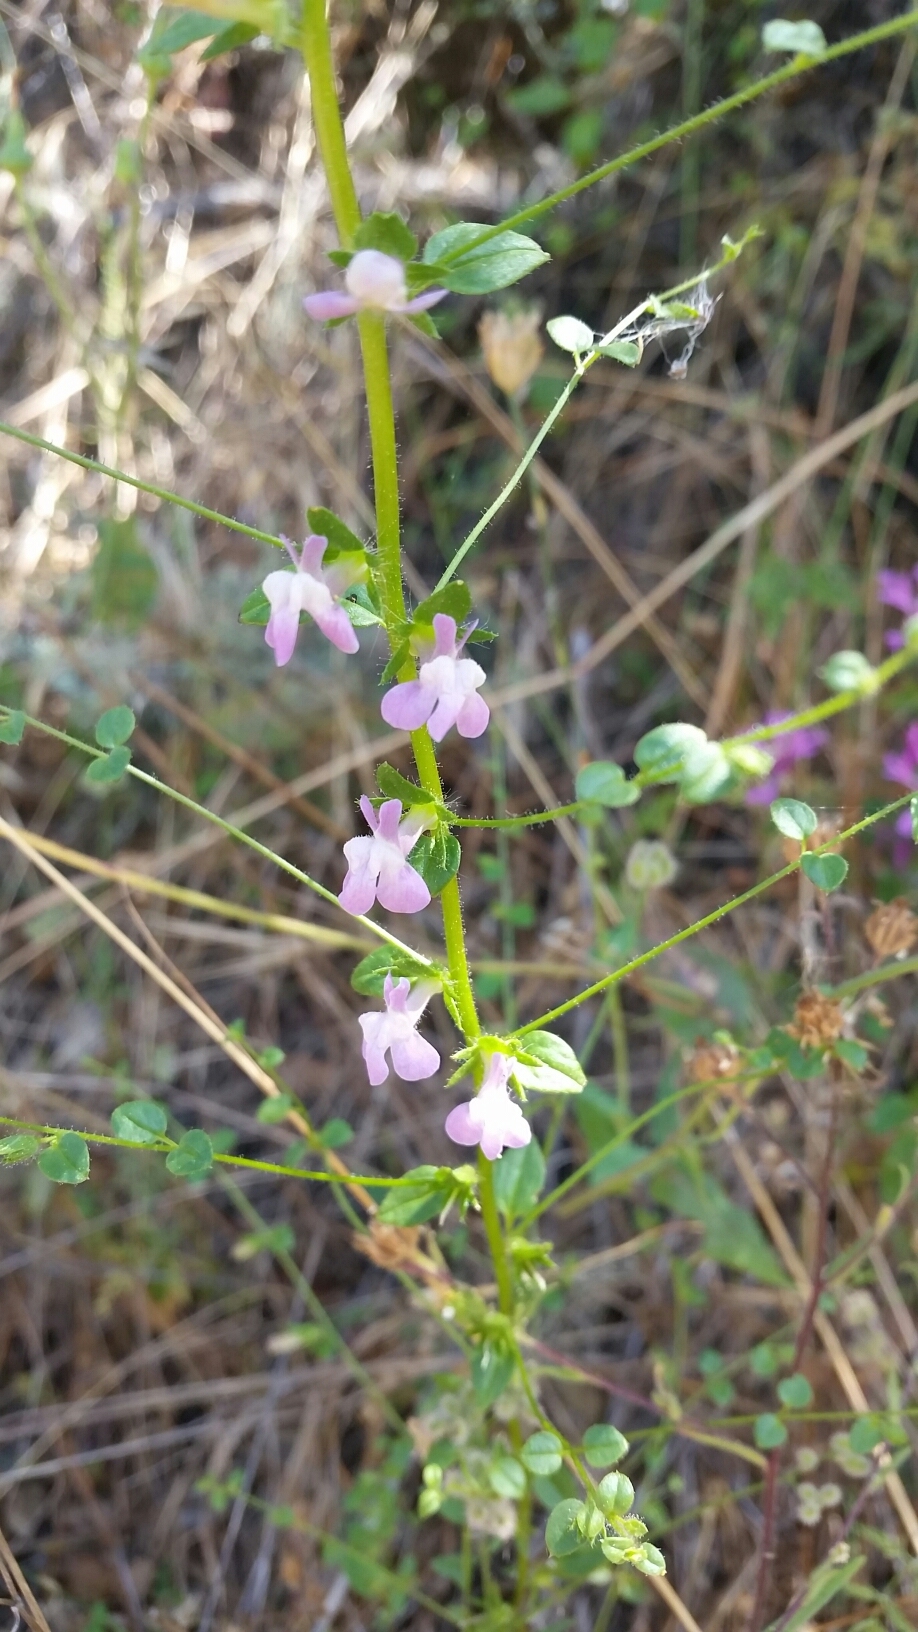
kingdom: Plantae
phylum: Tracheophyta
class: Magnoliopsida
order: Lamiales
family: Plantaginaceae
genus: Sairocarpus
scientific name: Sairocarpus vexillocalyculatus
